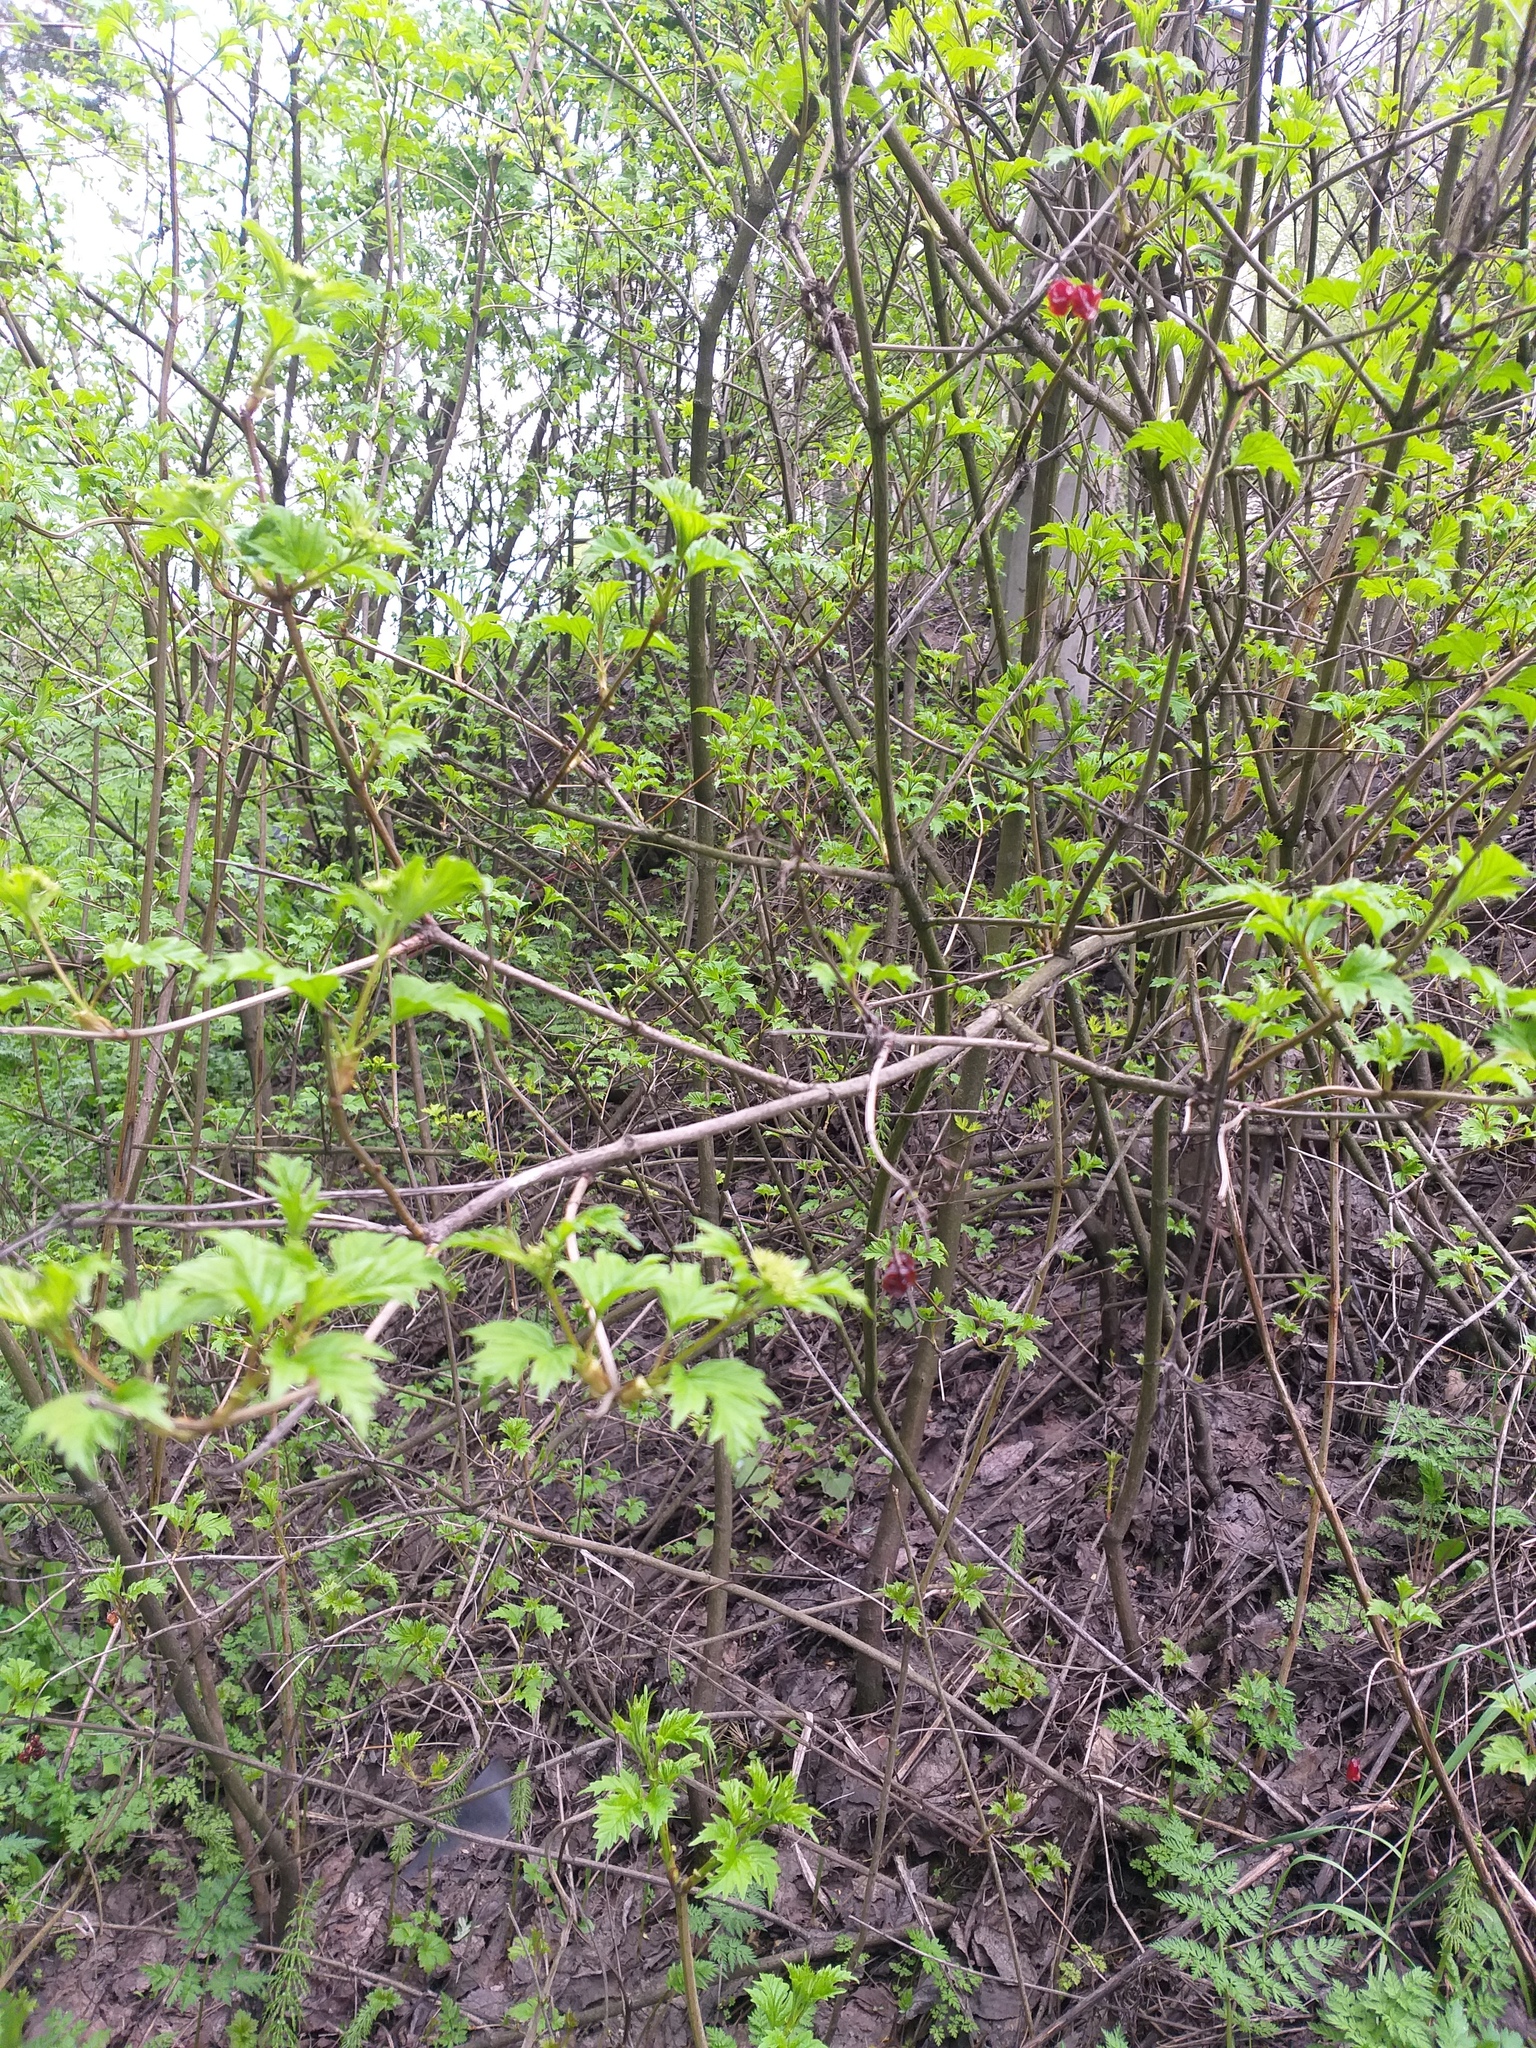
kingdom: Plantae
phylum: Tracheophyta
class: Magnoliopsida
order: Dipsacales
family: Viburnaceae
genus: Viburnum
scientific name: Viburnum opulus
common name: Guelder-rose
